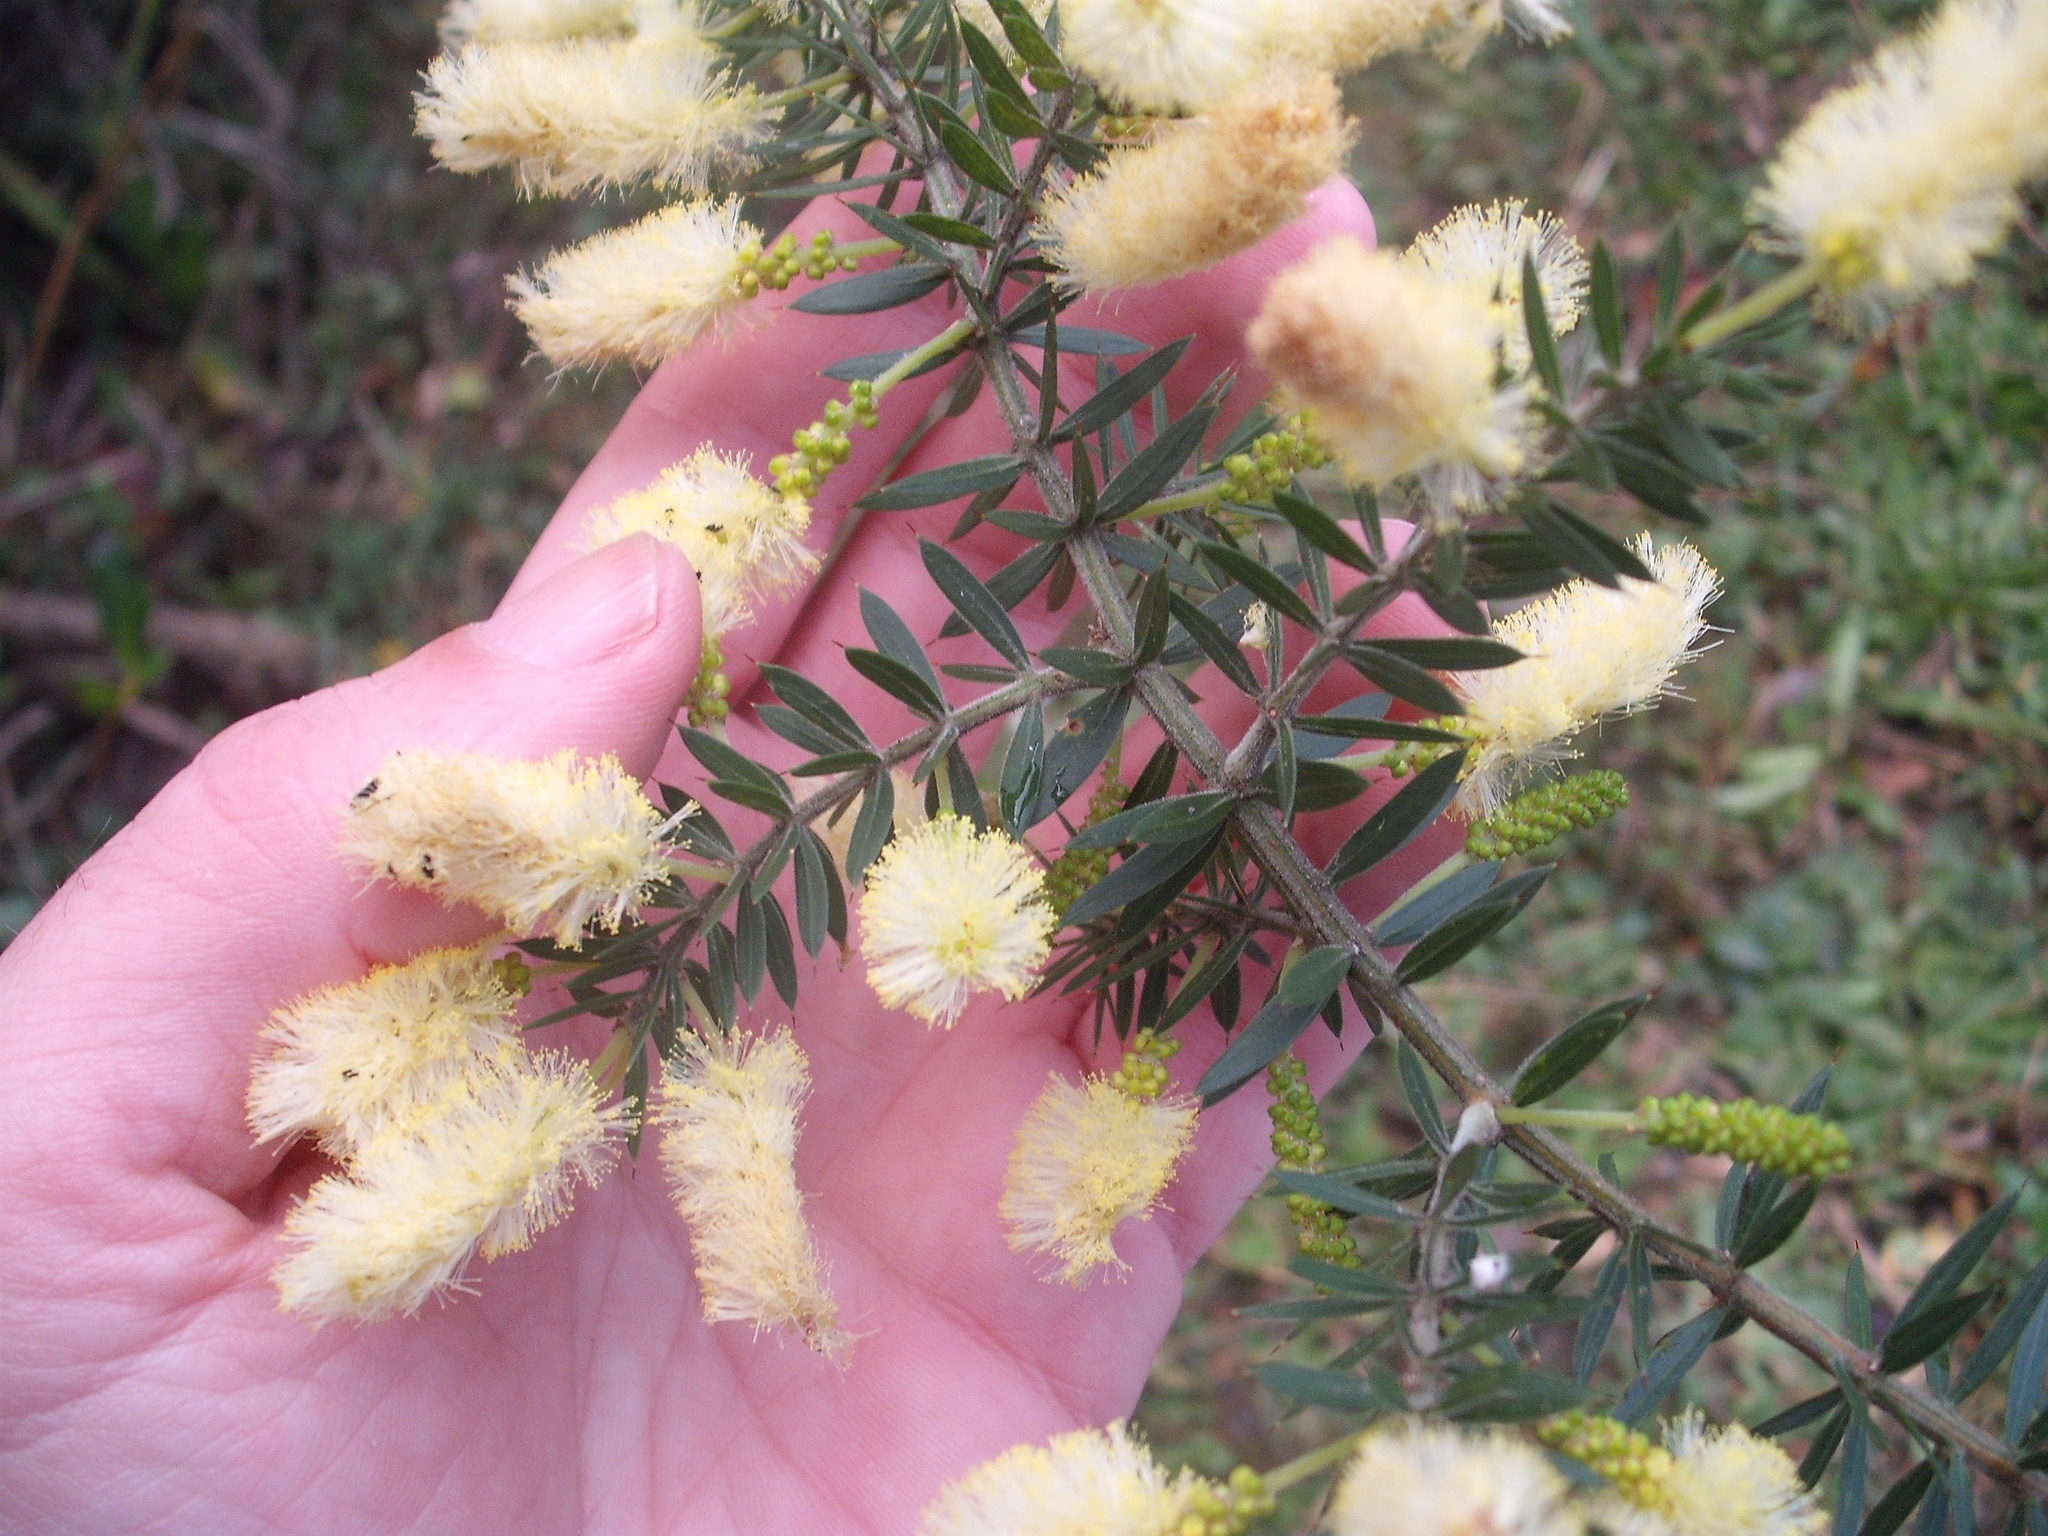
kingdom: Plantae
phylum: Tracheophyta
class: Magnoliopsida
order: Fabales
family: Fabaceae
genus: Acacia
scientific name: Acacia verticillata
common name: Prickly moses
